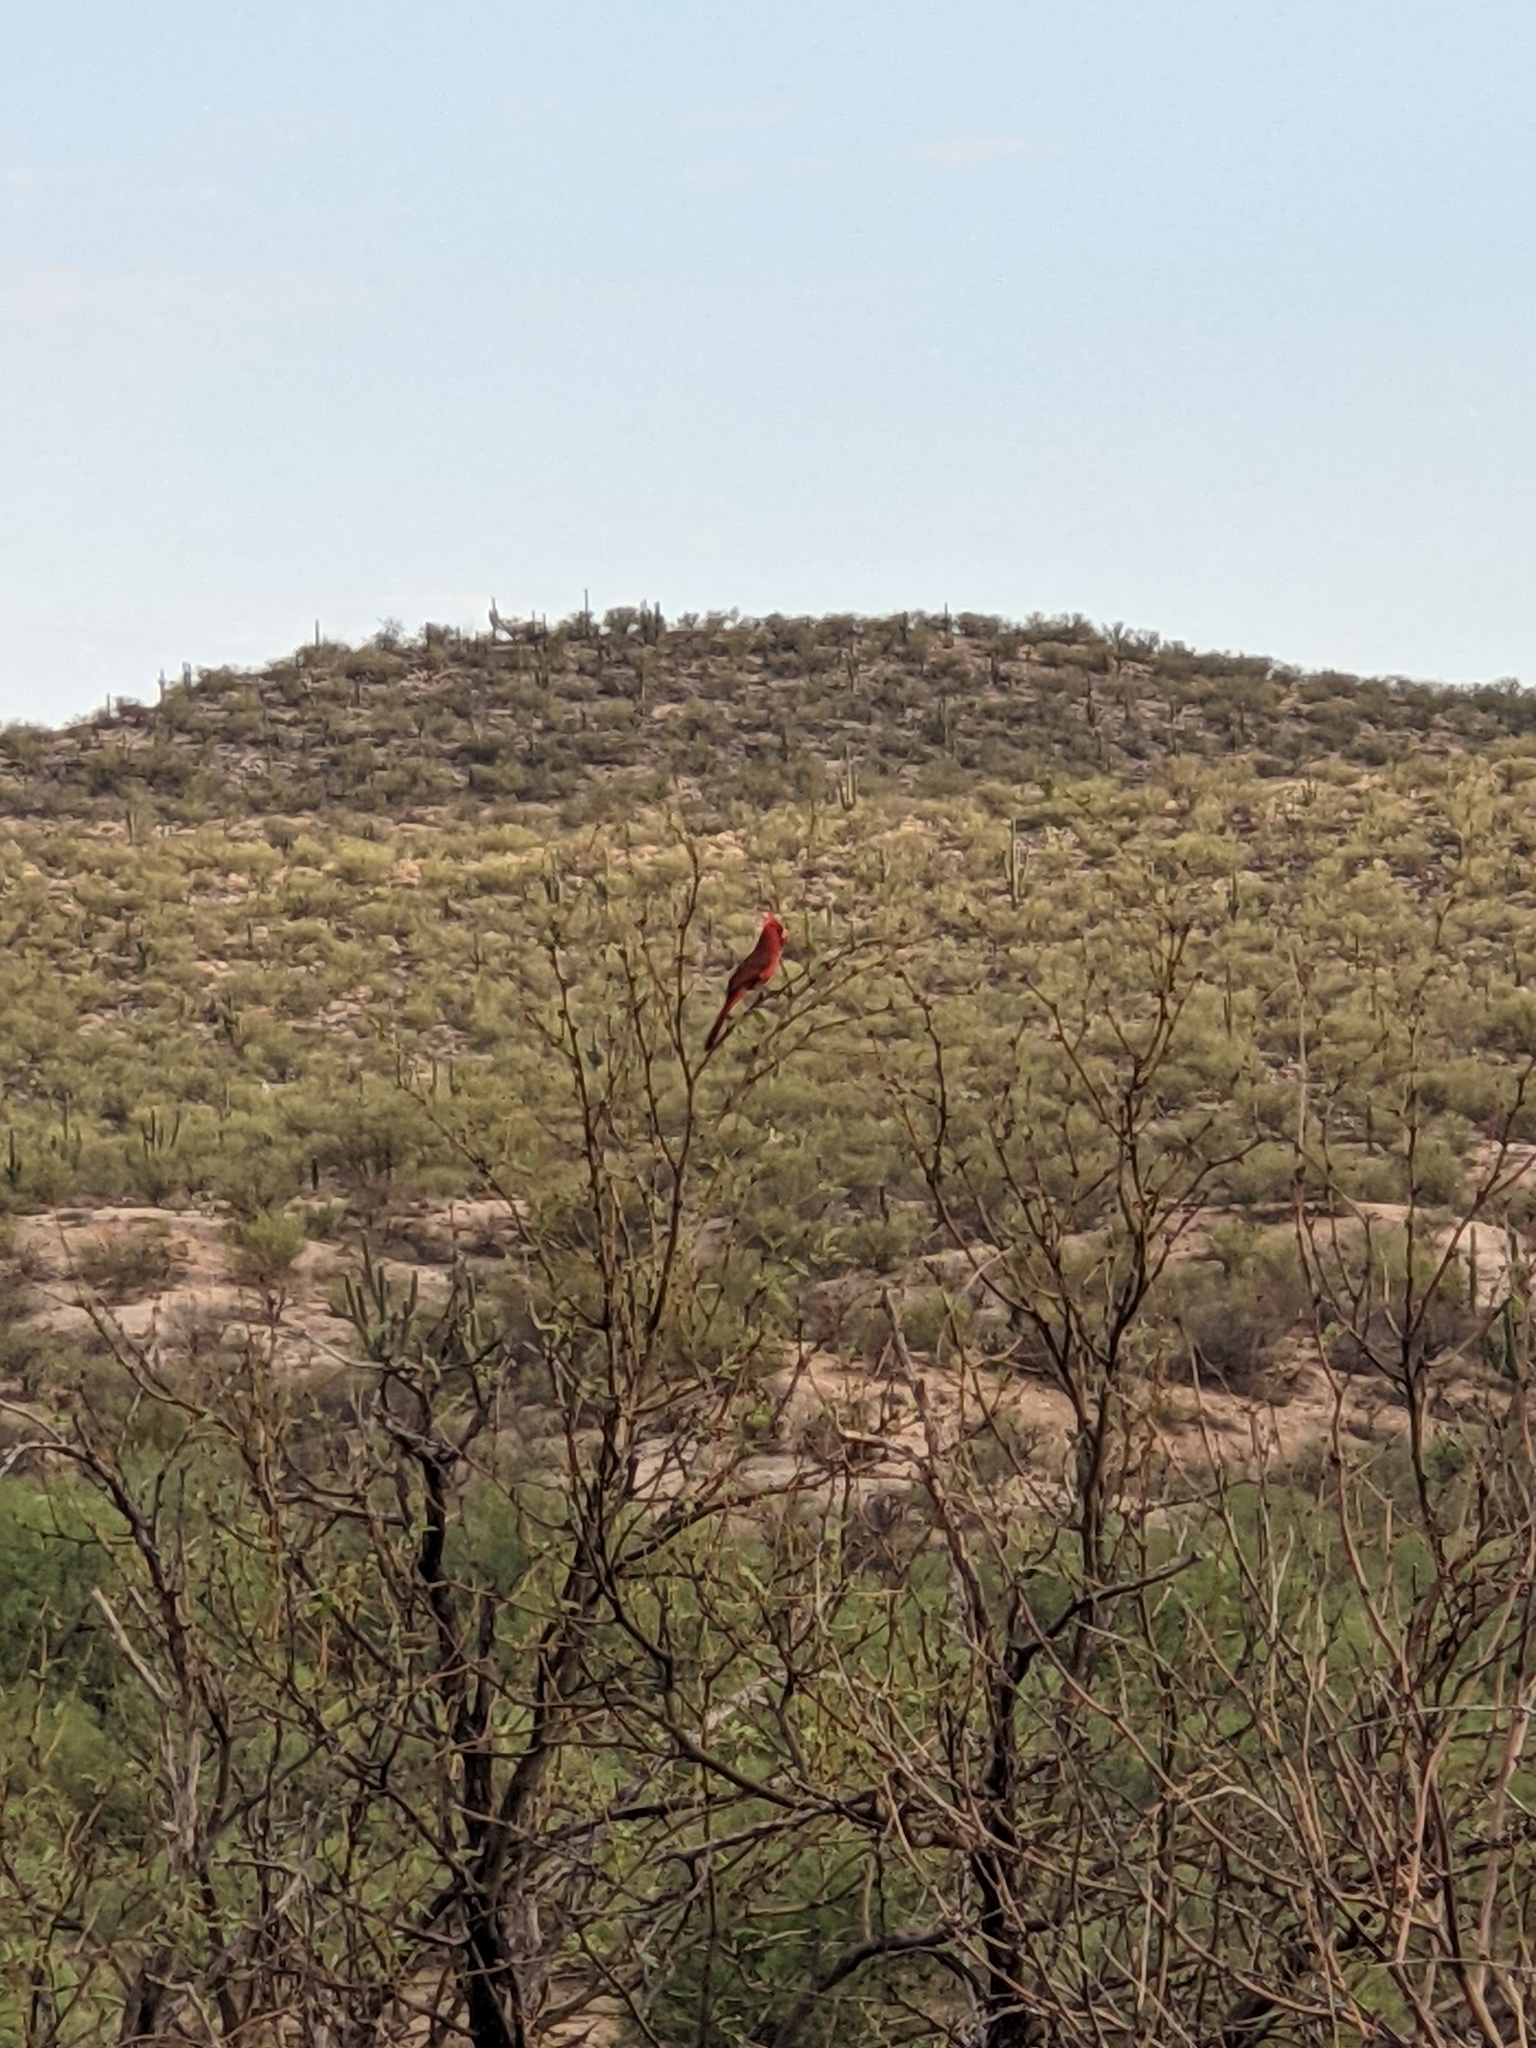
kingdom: Animalia
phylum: Chordata
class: Aves
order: Passeriformes
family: Cardinalidae
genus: Cardinalis
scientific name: Cardinalis cardinalis
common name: Northern cardinal
